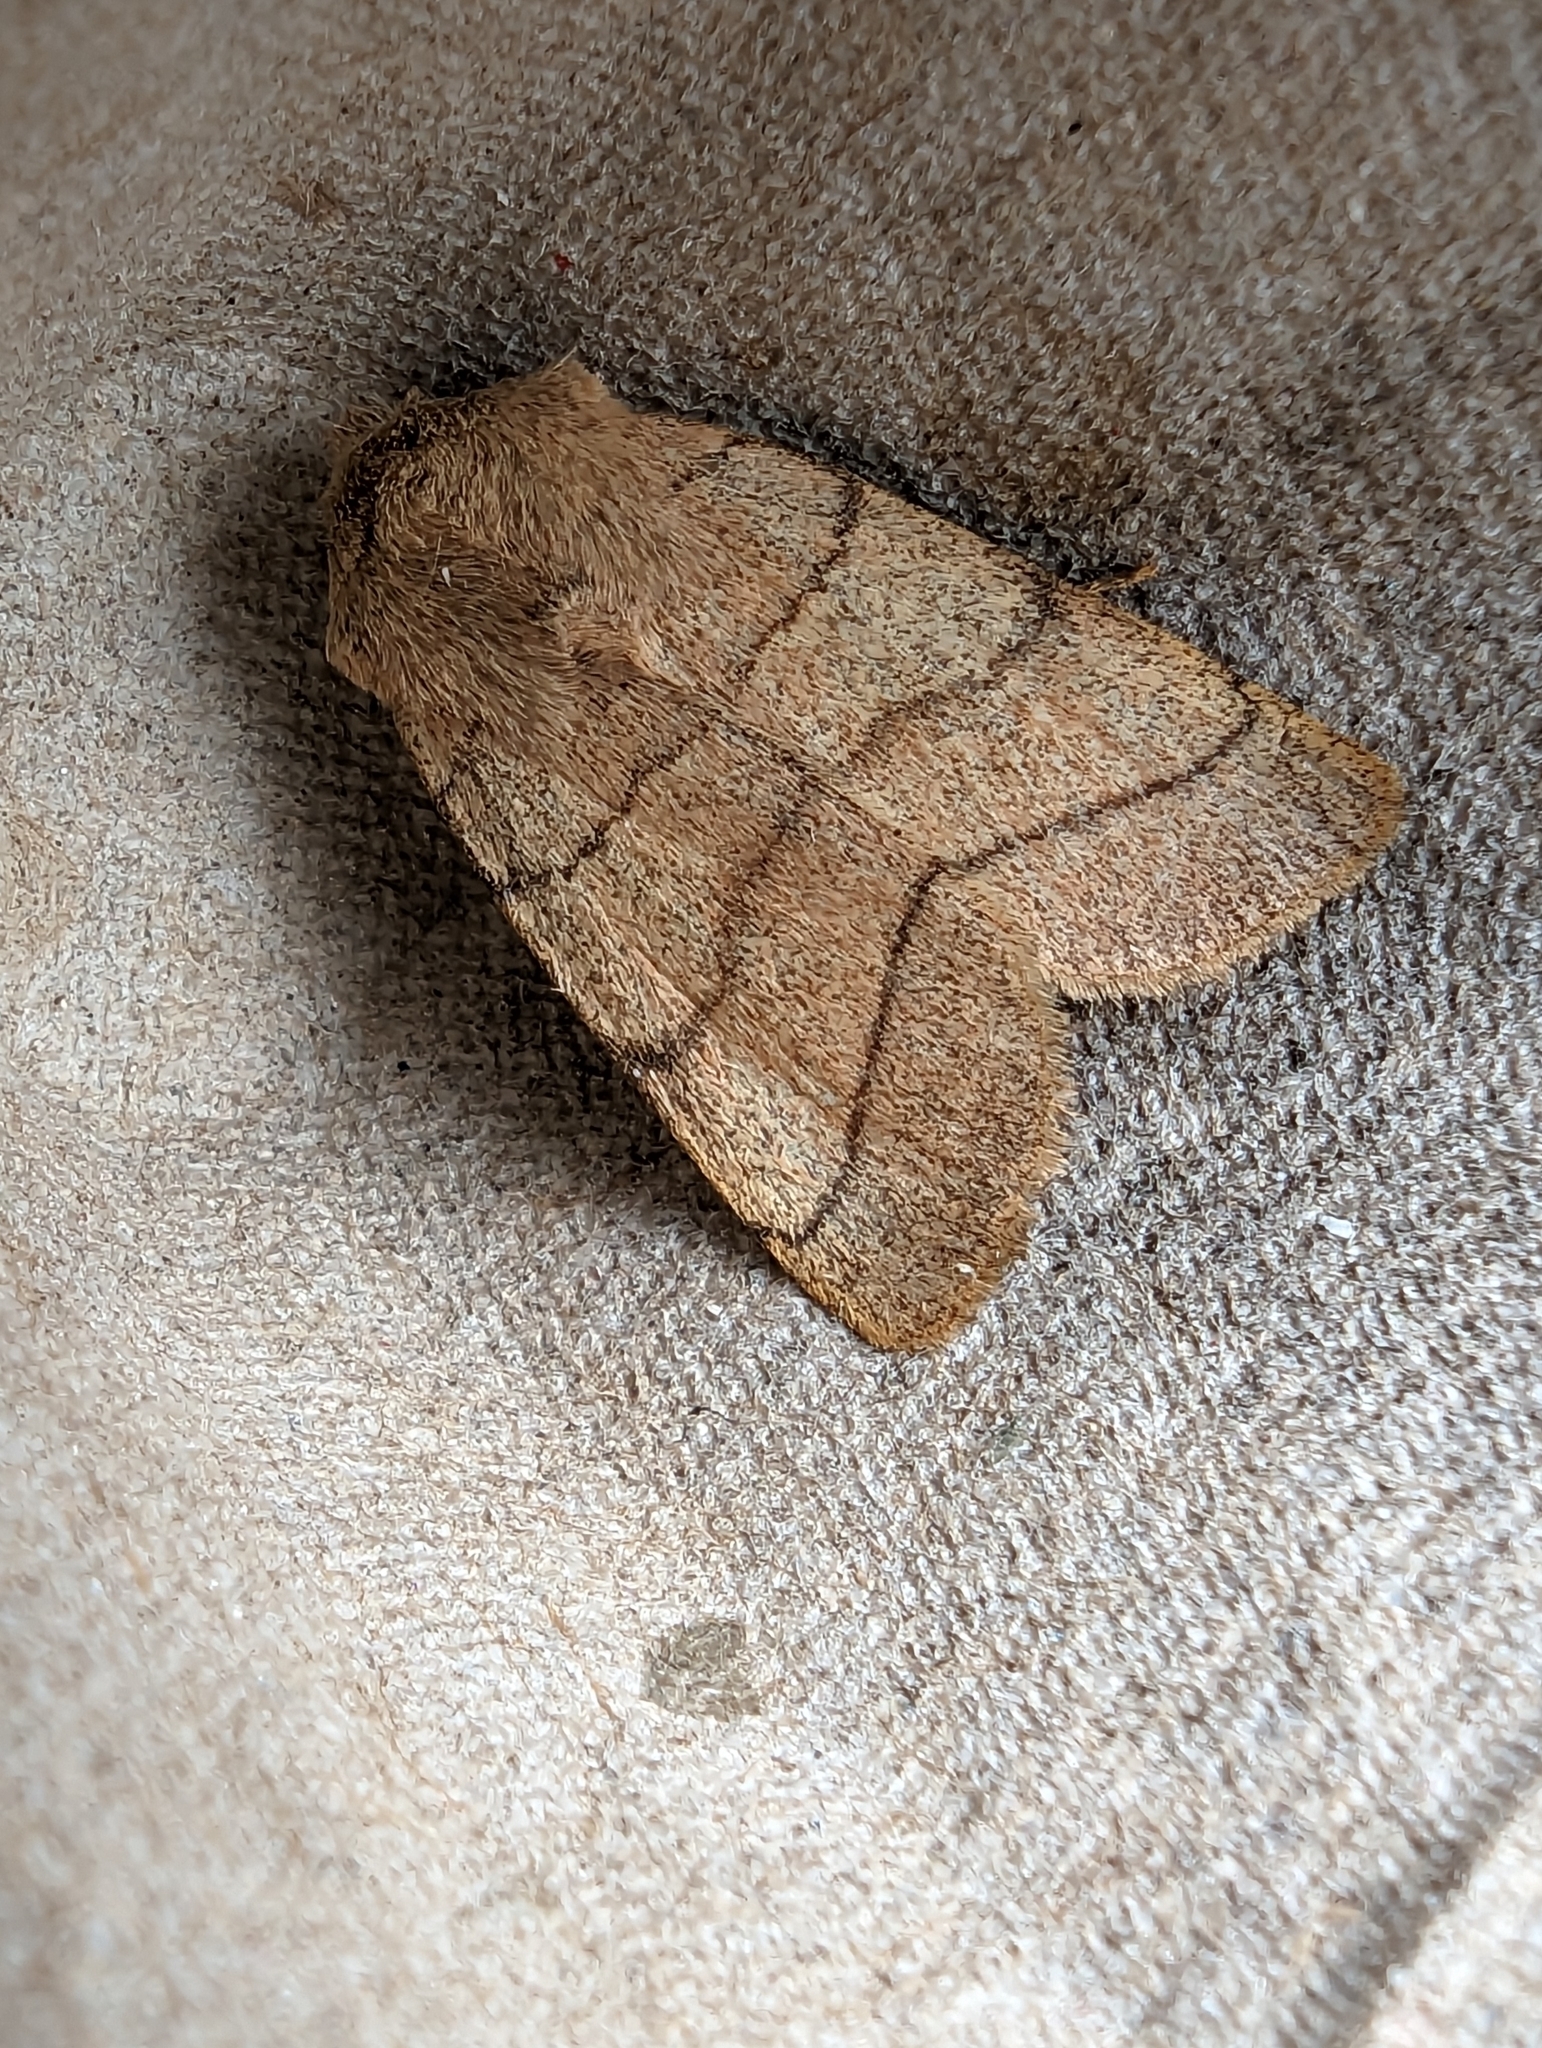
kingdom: Animalia
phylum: Arthropoda
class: Insecta
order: Lepidoptera
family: Noctuidae
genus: Charanyca
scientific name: Charanyca trigrammica
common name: Treble lines
